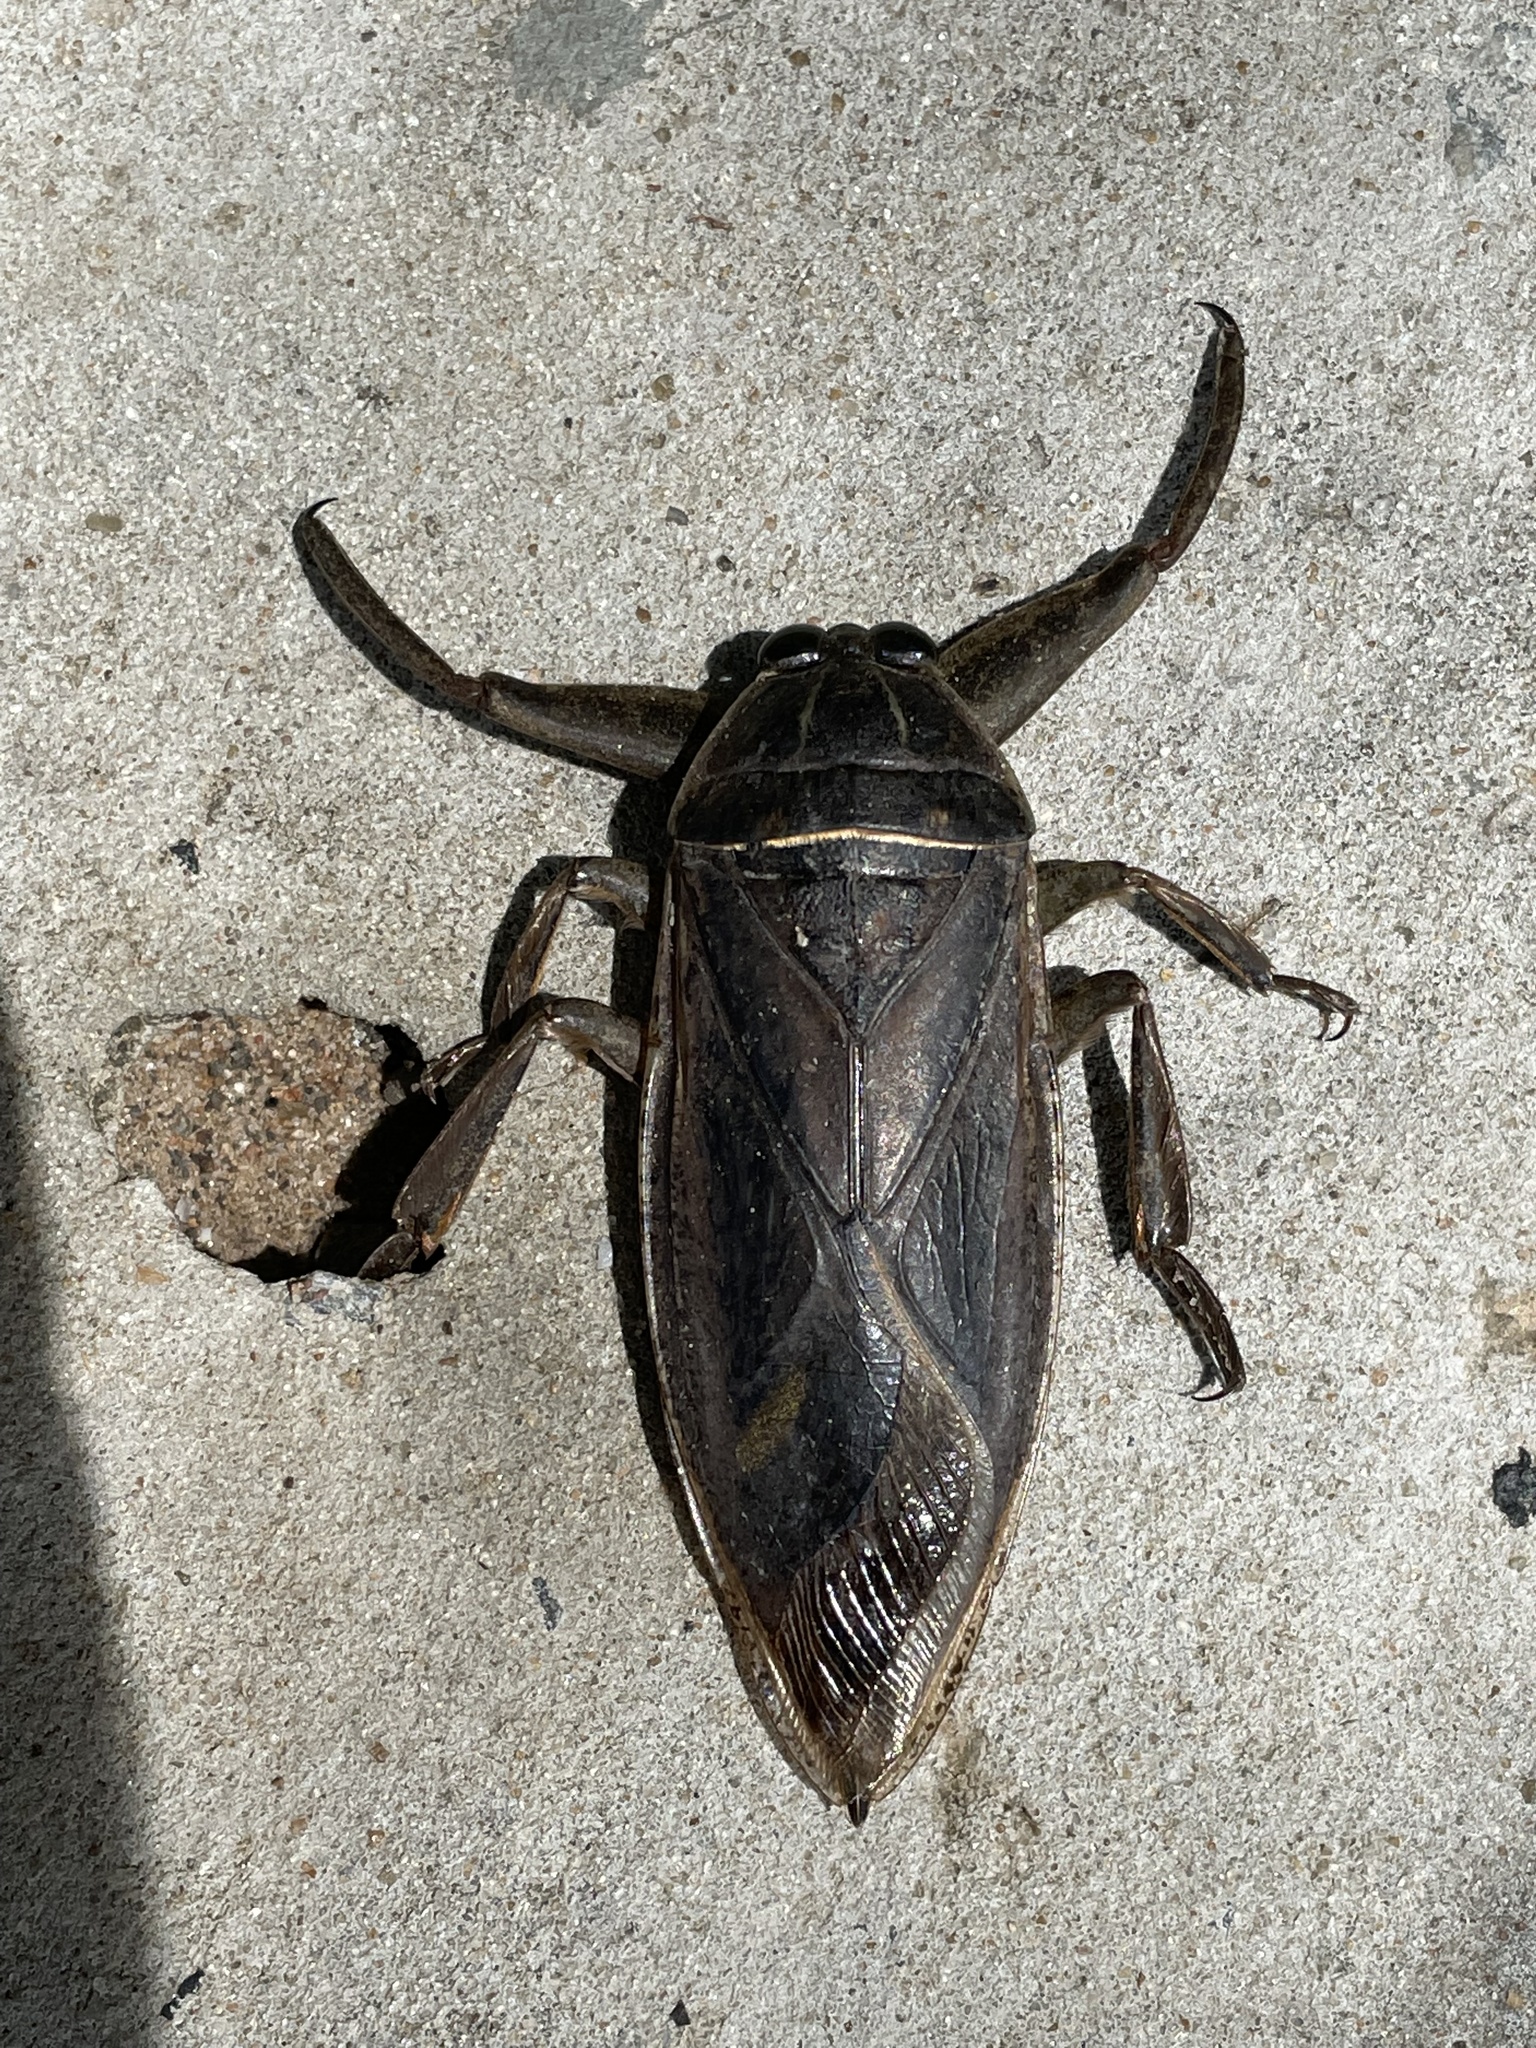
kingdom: Animalia
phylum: Arthropoda
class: Insecta
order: Hemiptera
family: Belostomatidae
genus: Lethocerus
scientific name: Lethocerus cordofanus
